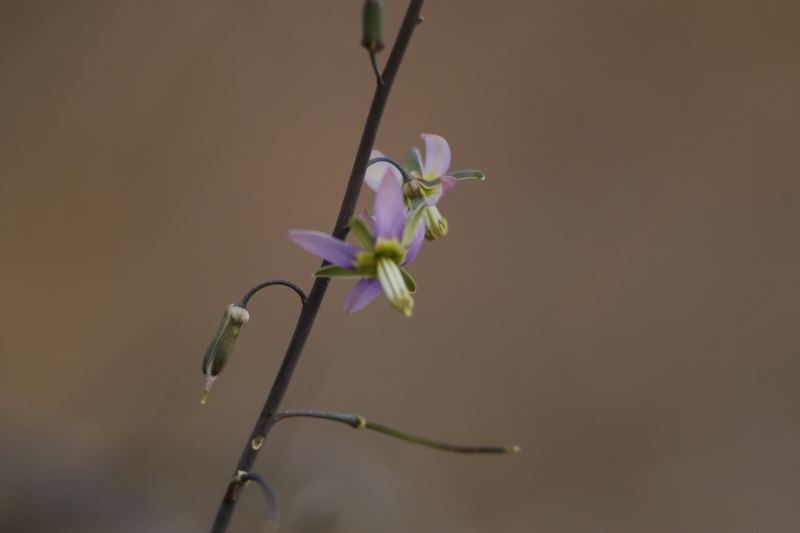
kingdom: Plantae
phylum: Tracheophyta
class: Magnoliopsida
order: Brassicales
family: Brassicaceae
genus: Heliophila
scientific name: Heliophila cornuta
